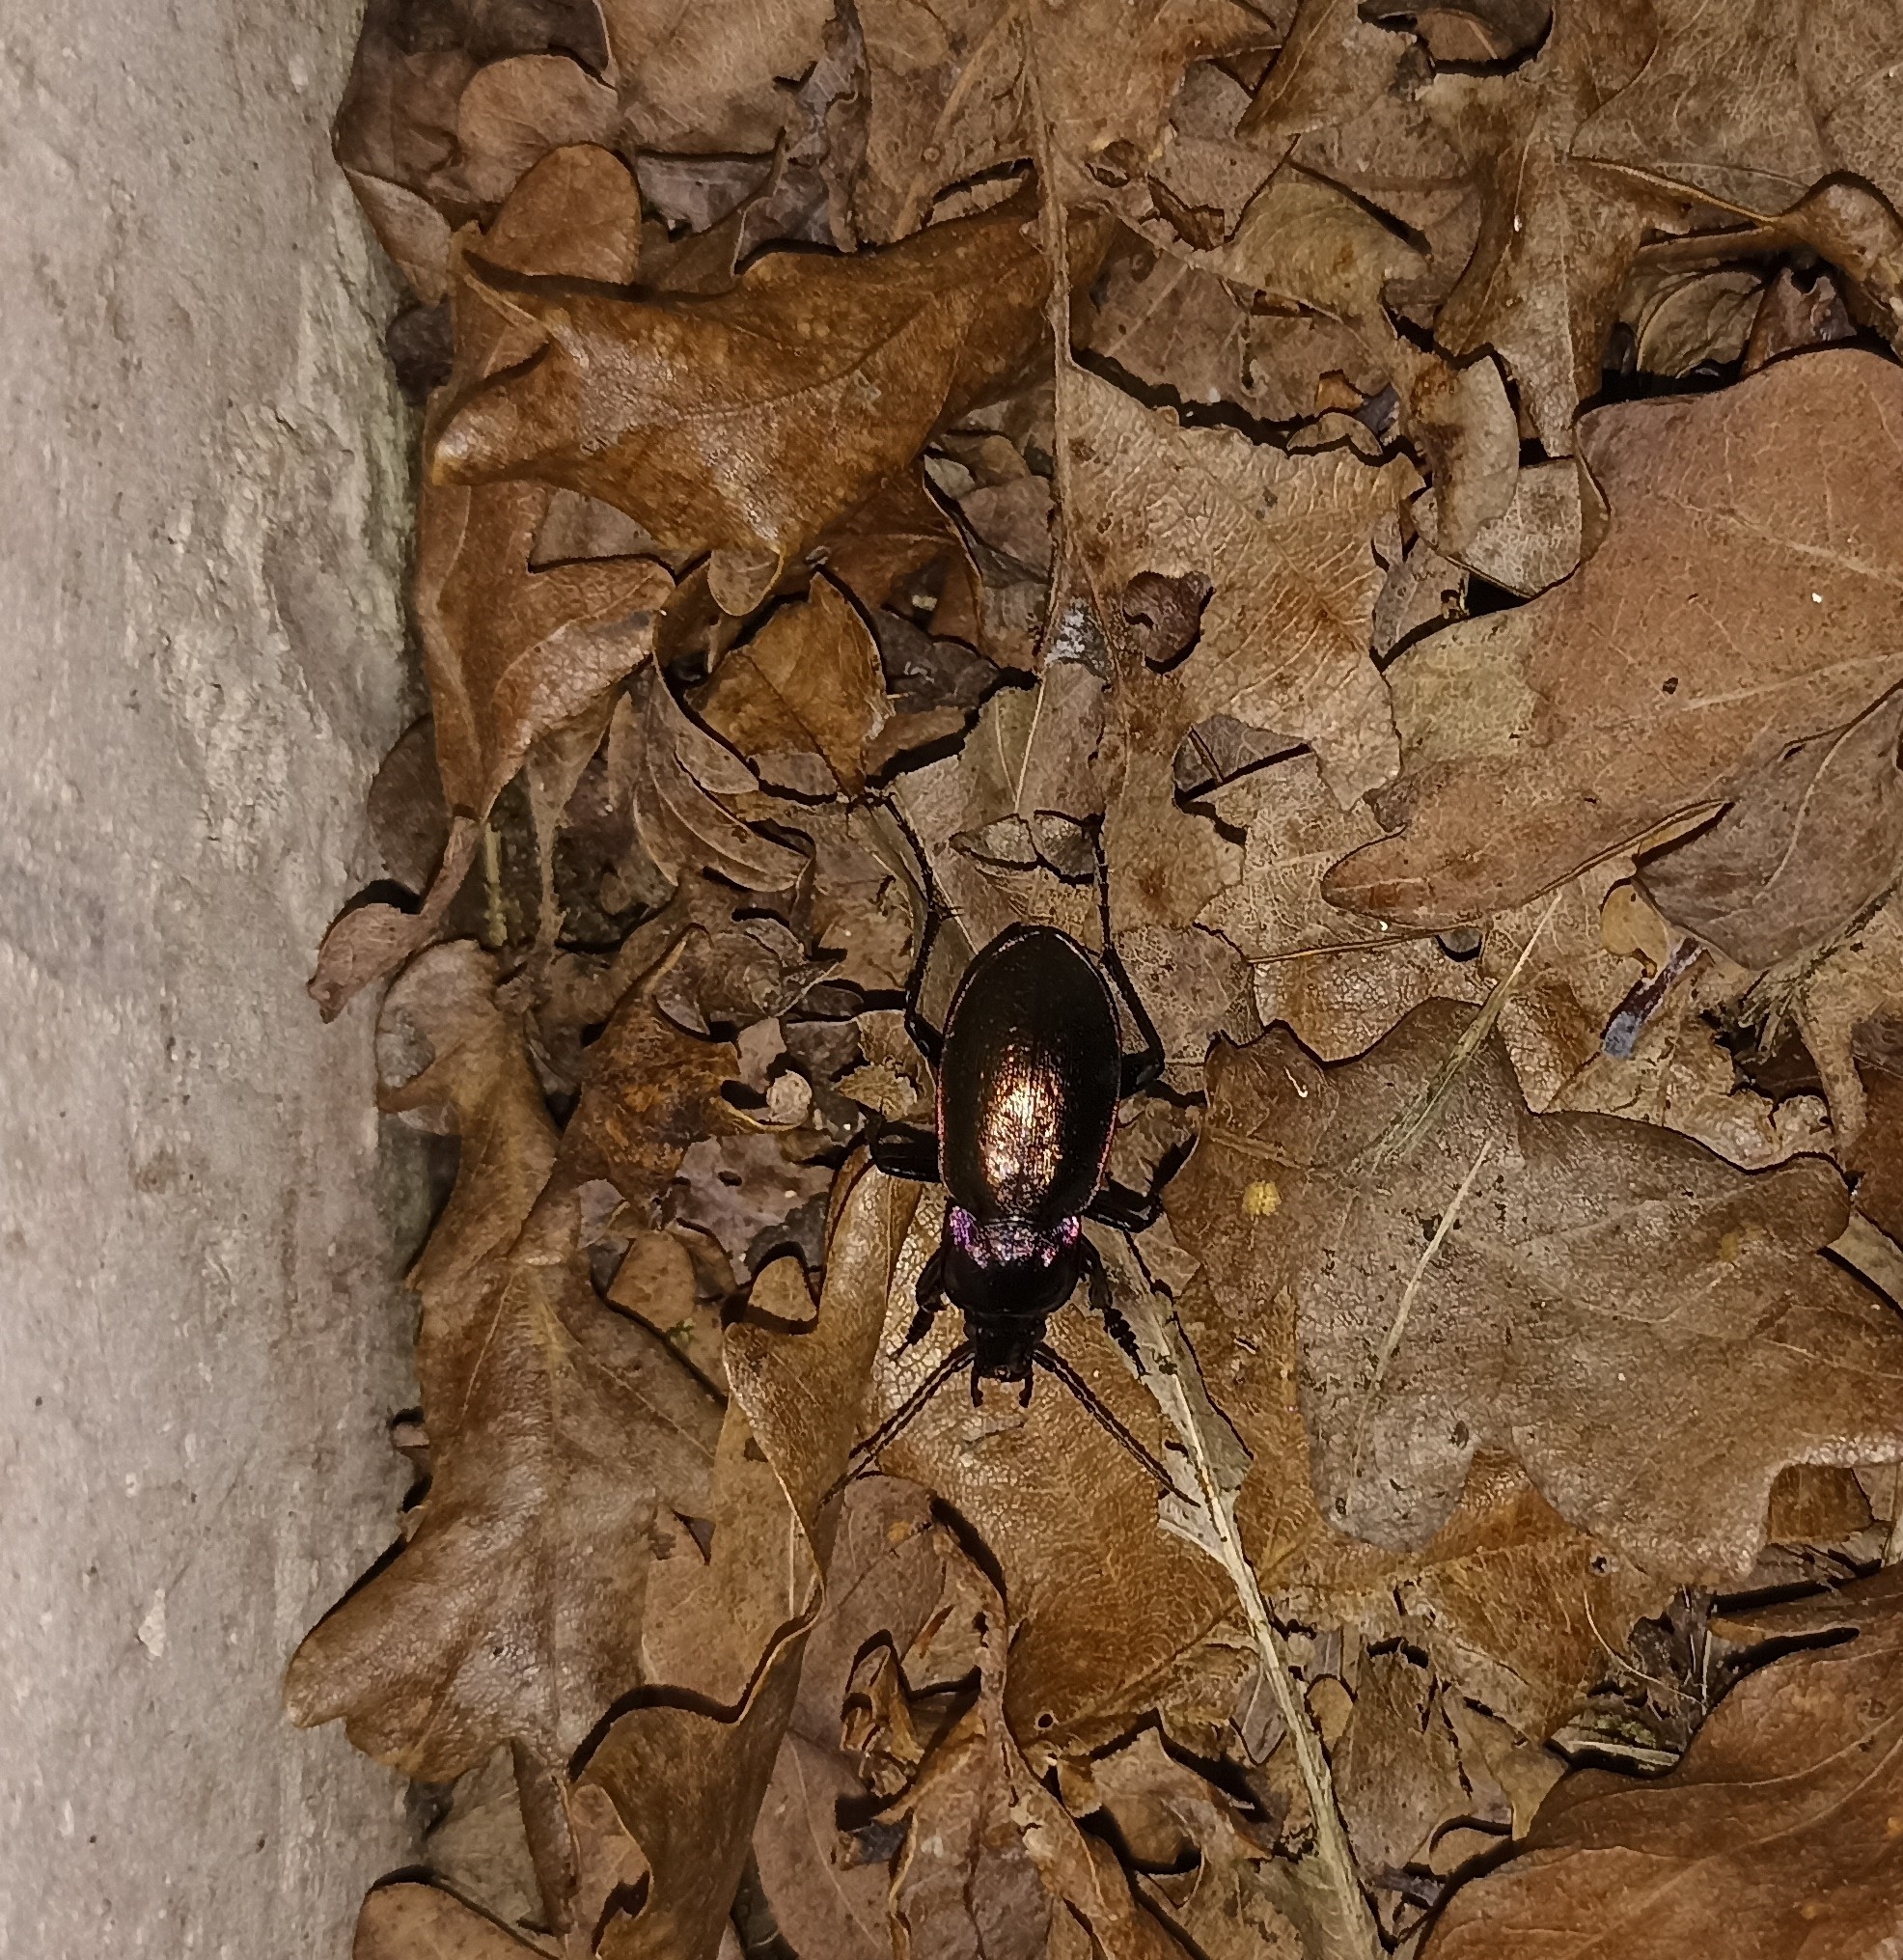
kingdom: Animalia
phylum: Arthropoda
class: Insecta
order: Coleoptera
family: Carabidae
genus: Carabus
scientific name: Carabus nemoralis
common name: European ground beetle
